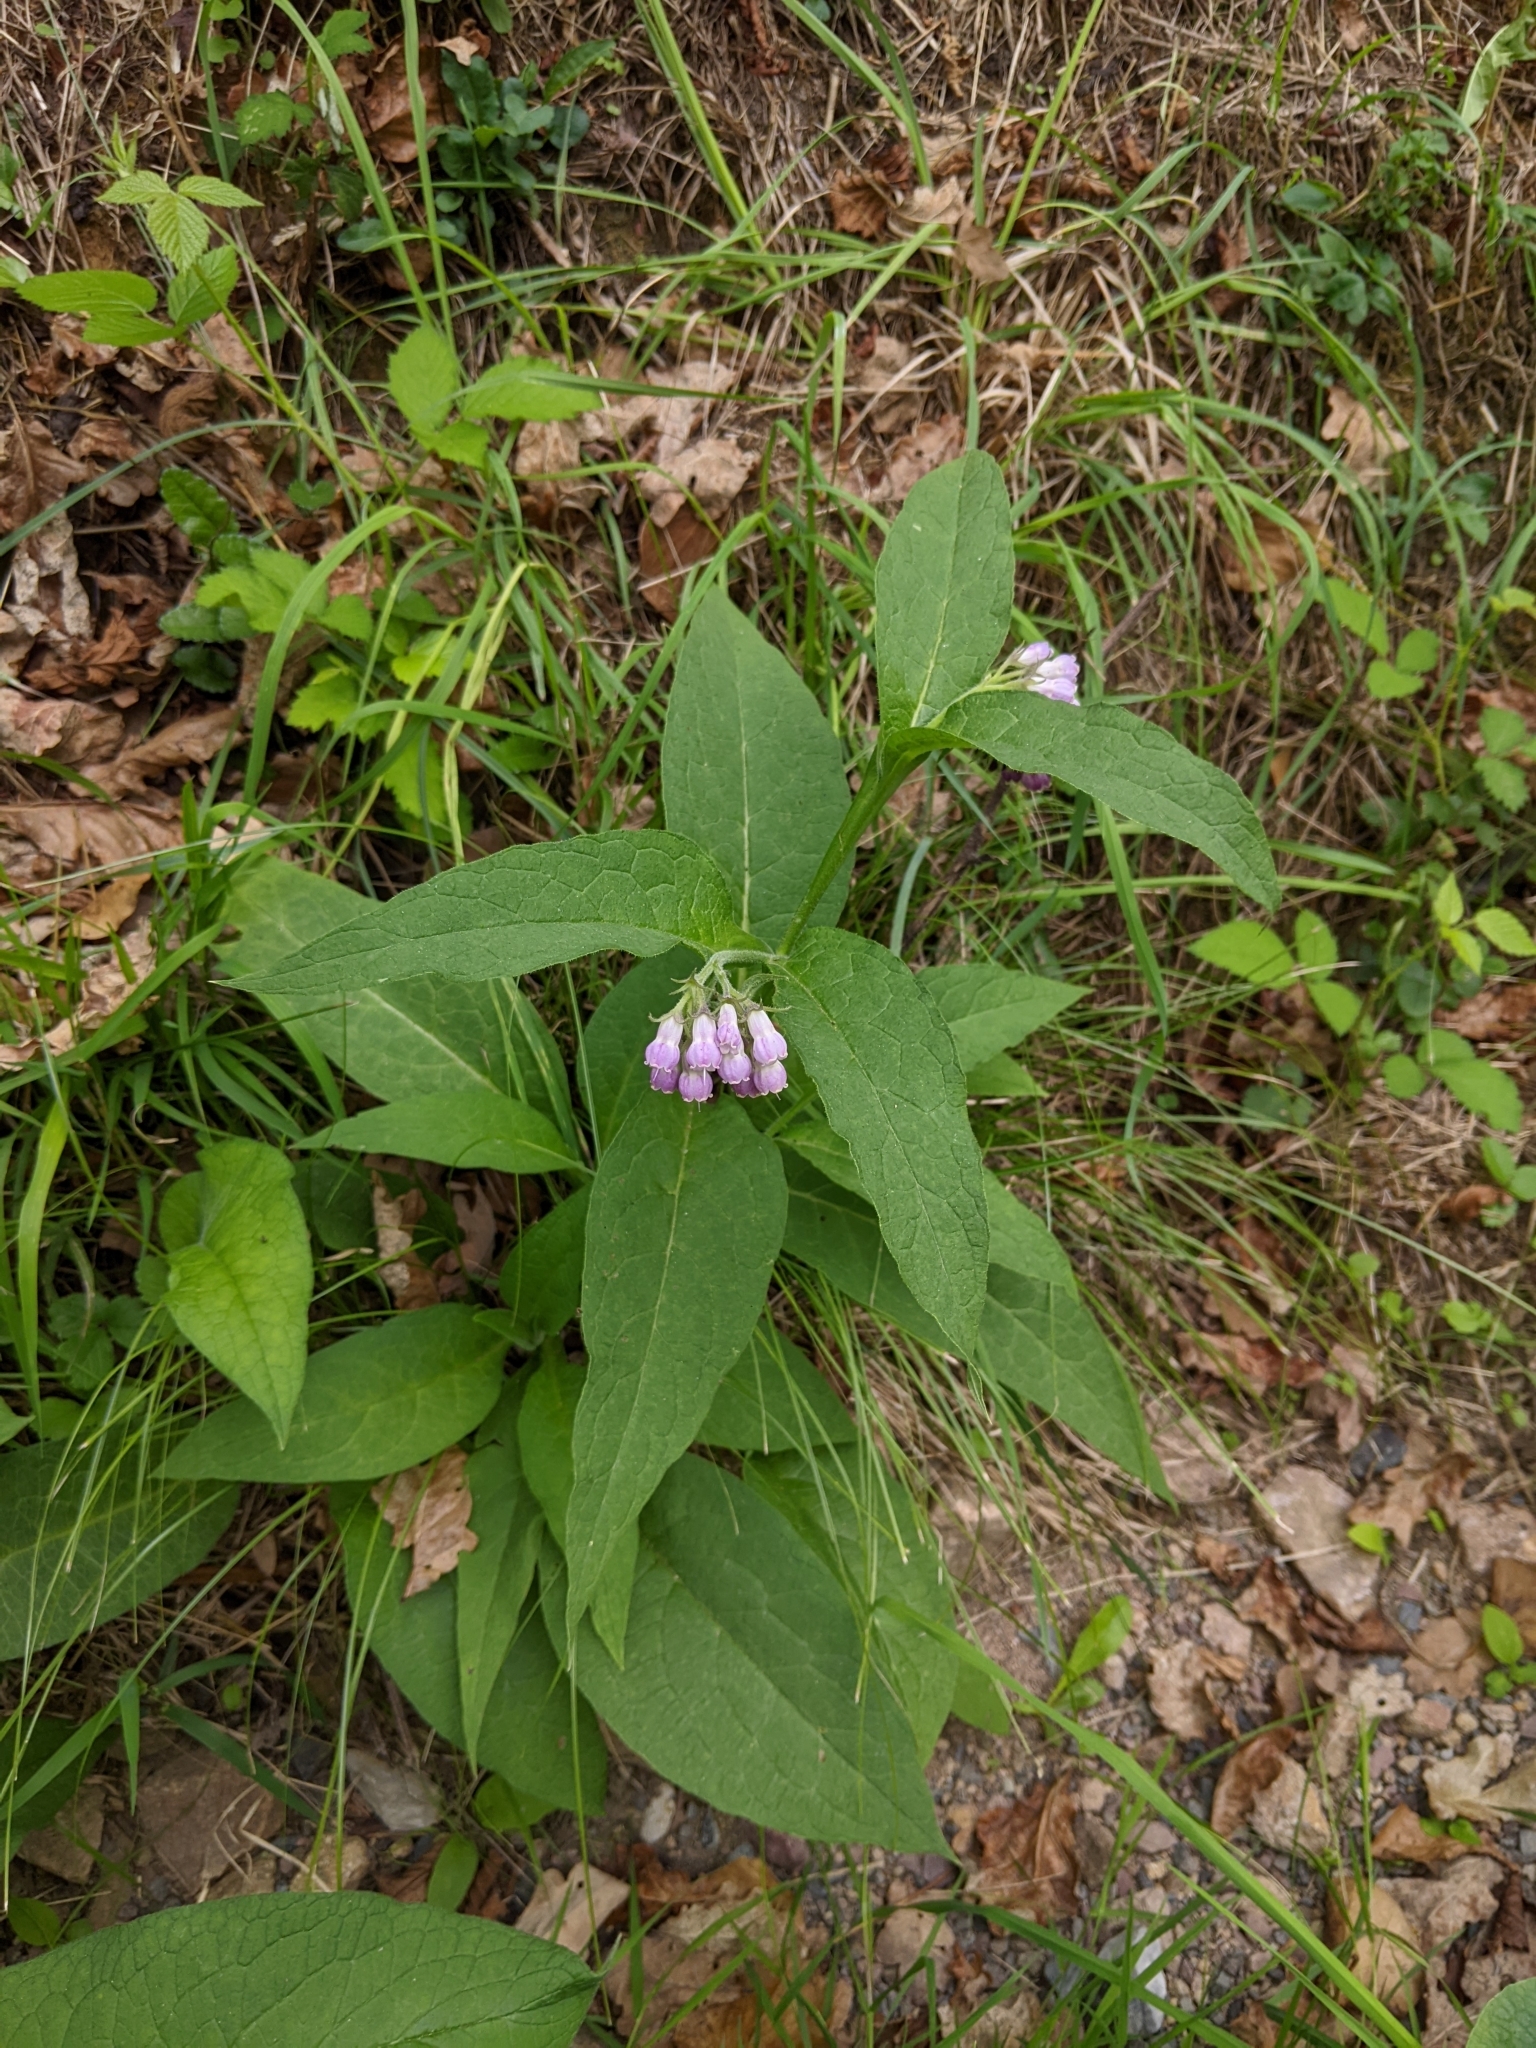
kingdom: Plantae
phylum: Tracheophyta
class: Magnoliopsida
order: Boraginales
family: Boraginaceae
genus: Symphytum
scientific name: Symphytum officinale
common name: Common comfrey
